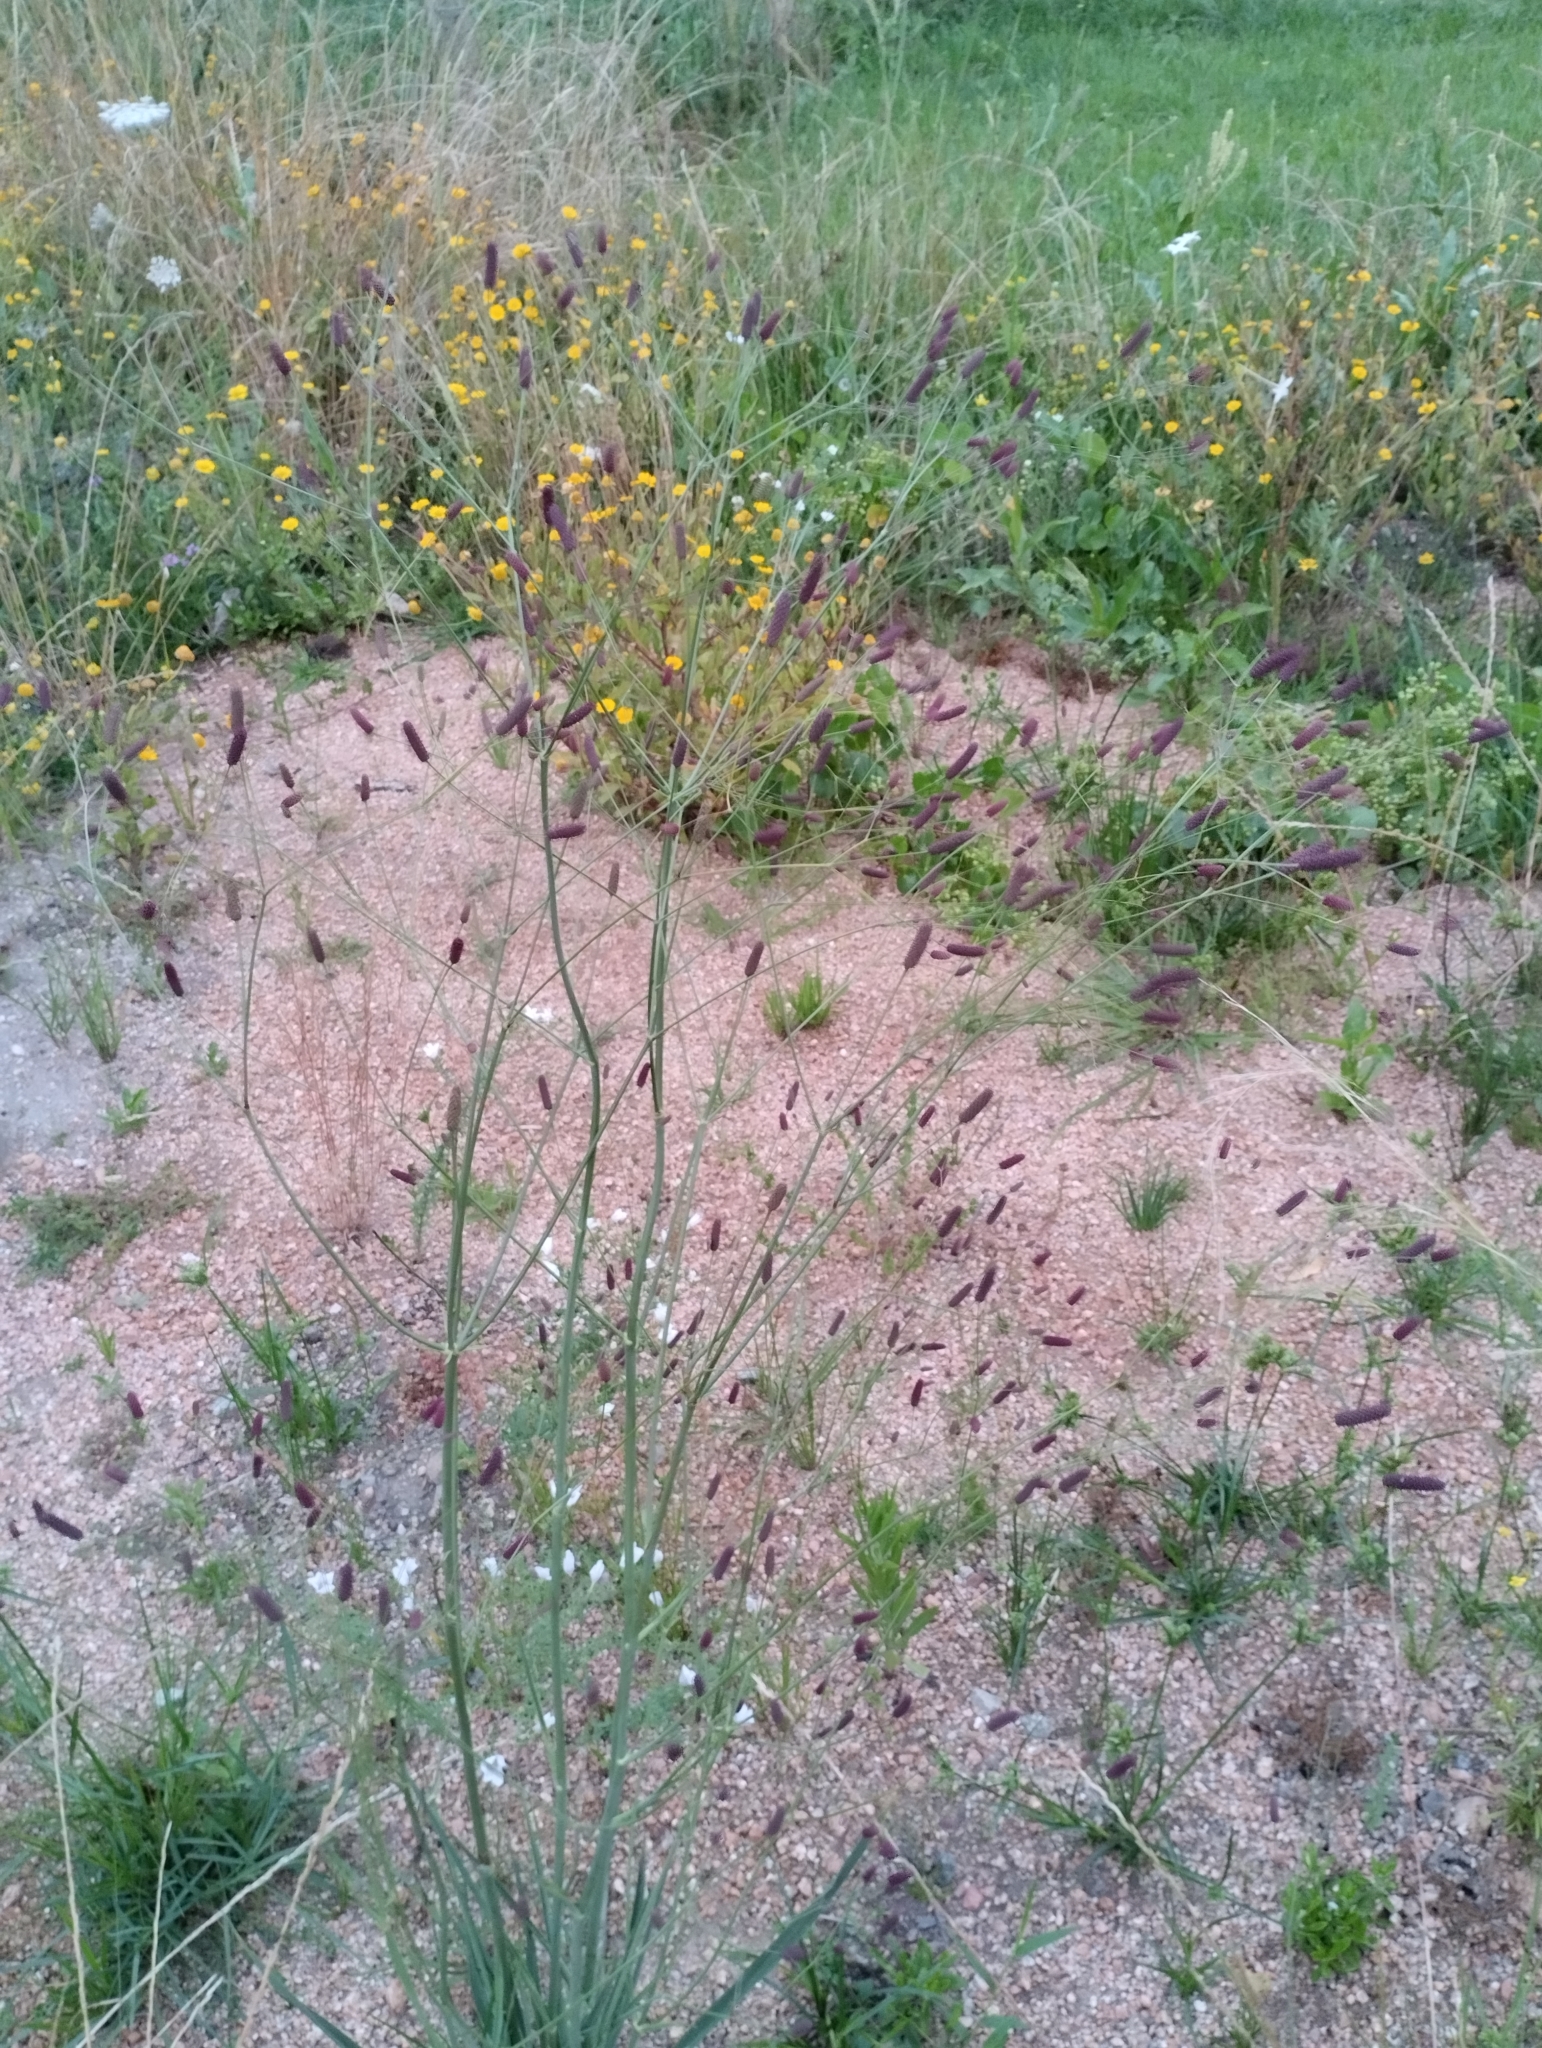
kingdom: Plantae
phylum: Tracheophyta
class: Magnoliopsida
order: Apiales
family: Apiaceae
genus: Eryngium
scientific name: Eryngium ebracteatum
